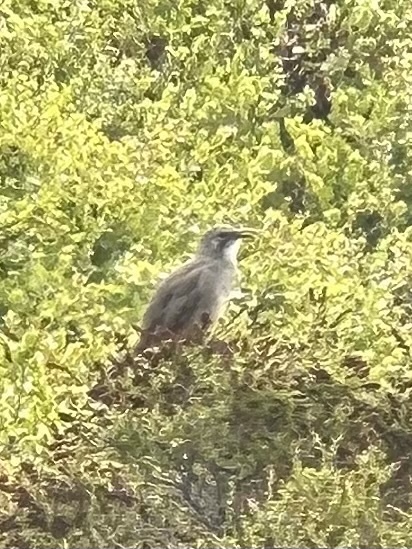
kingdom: Animalia
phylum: Chordata
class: Aves
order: Passeriformes
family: Mimidae
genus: Toxostoma
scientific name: Toxostoma redivivum
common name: California thrasher
